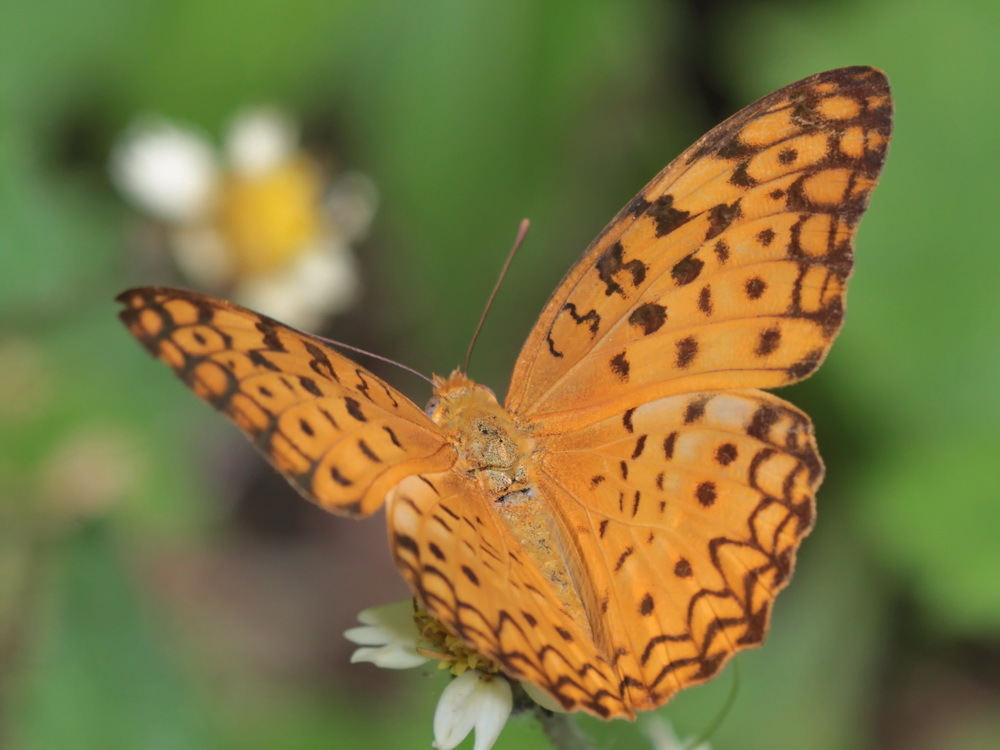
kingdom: Animalia
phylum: Arthropoda
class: Insecta
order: Lepidoptera
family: Nymphalidae
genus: Phalanta
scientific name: Phalanta phalantha
